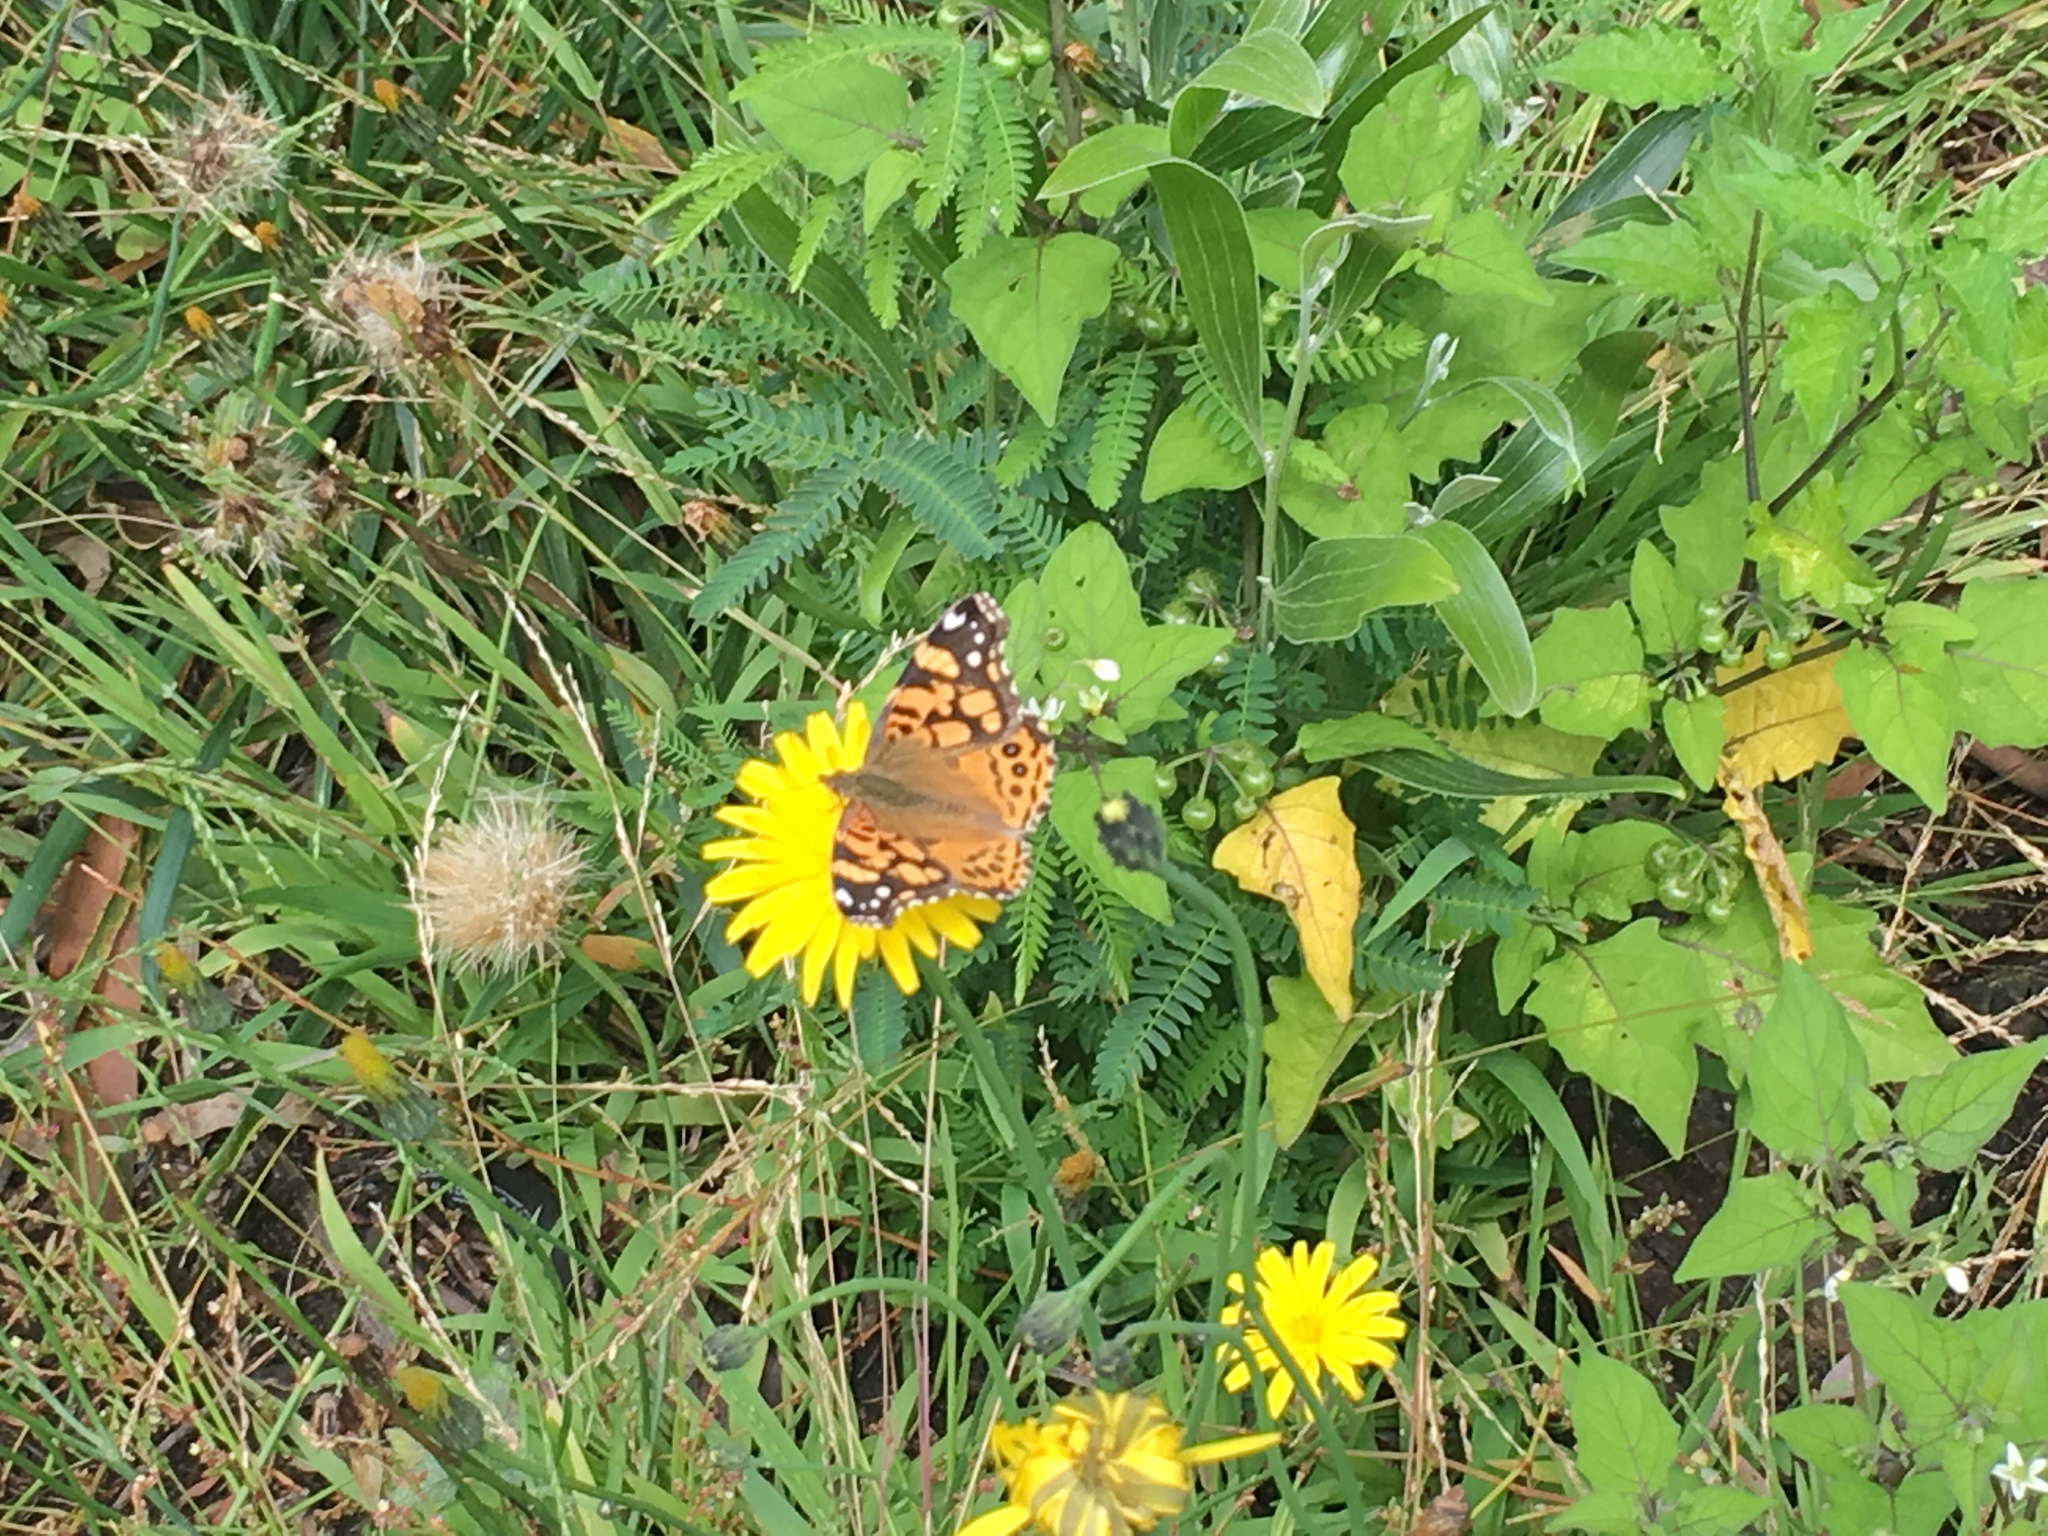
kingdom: Animalia
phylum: Arthropoda
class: Insecta
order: Lepidoptera
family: Nymphalidae
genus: Vanessa
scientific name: Vanessa annabella
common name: West coast lady
